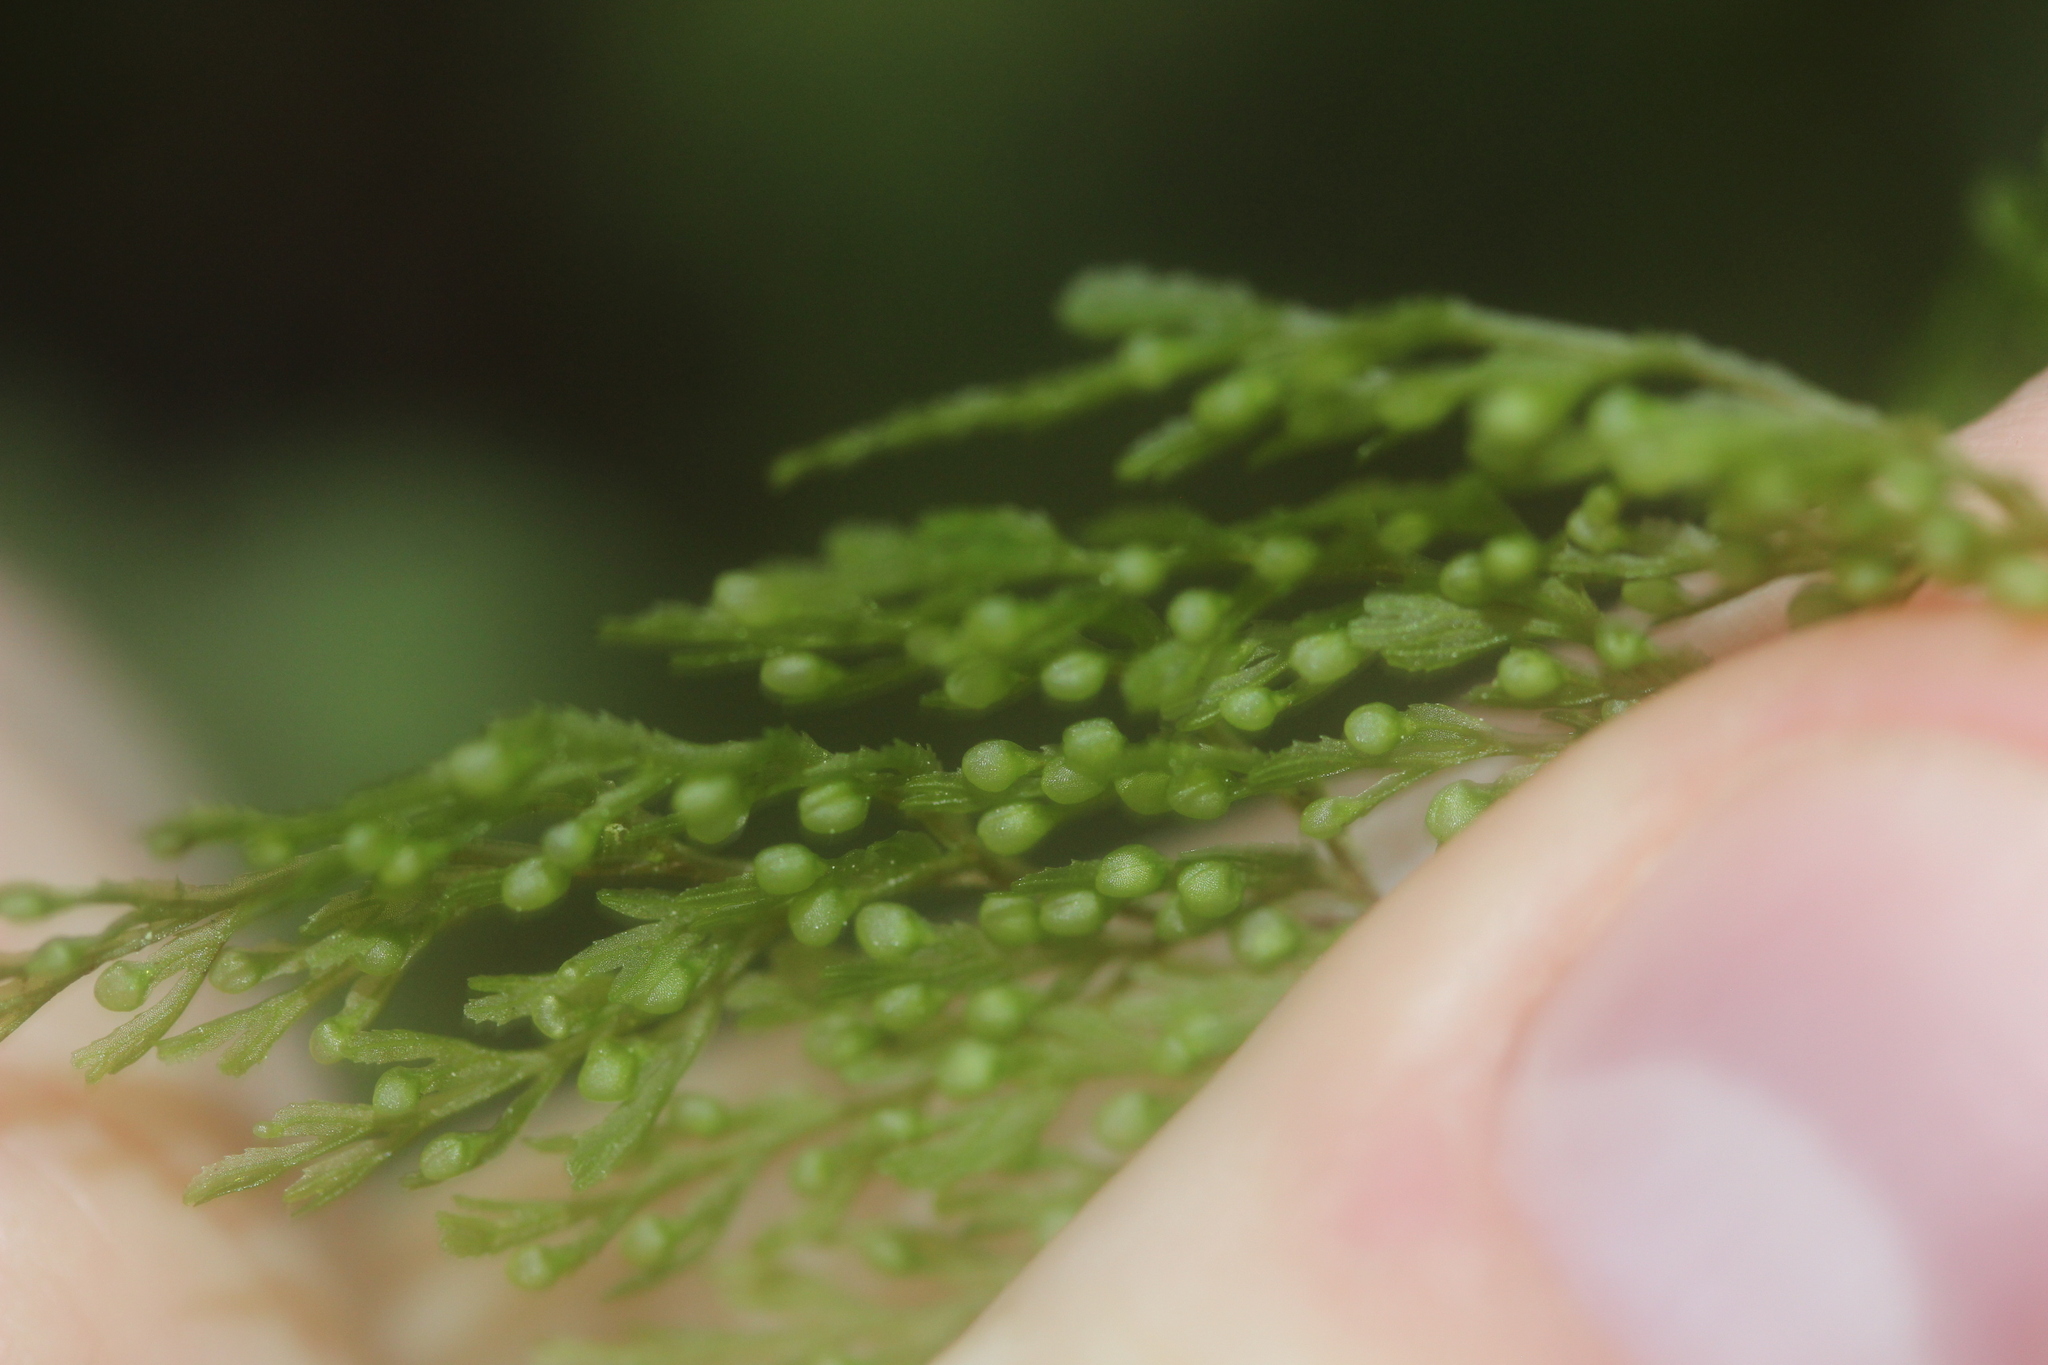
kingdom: Plantae
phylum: Tracheophyta
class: Polypodiopsida
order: Hymenophyllales
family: Hymenophyllaceae
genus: Hymenophyllum
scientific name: Hymenophyllum bivalve
